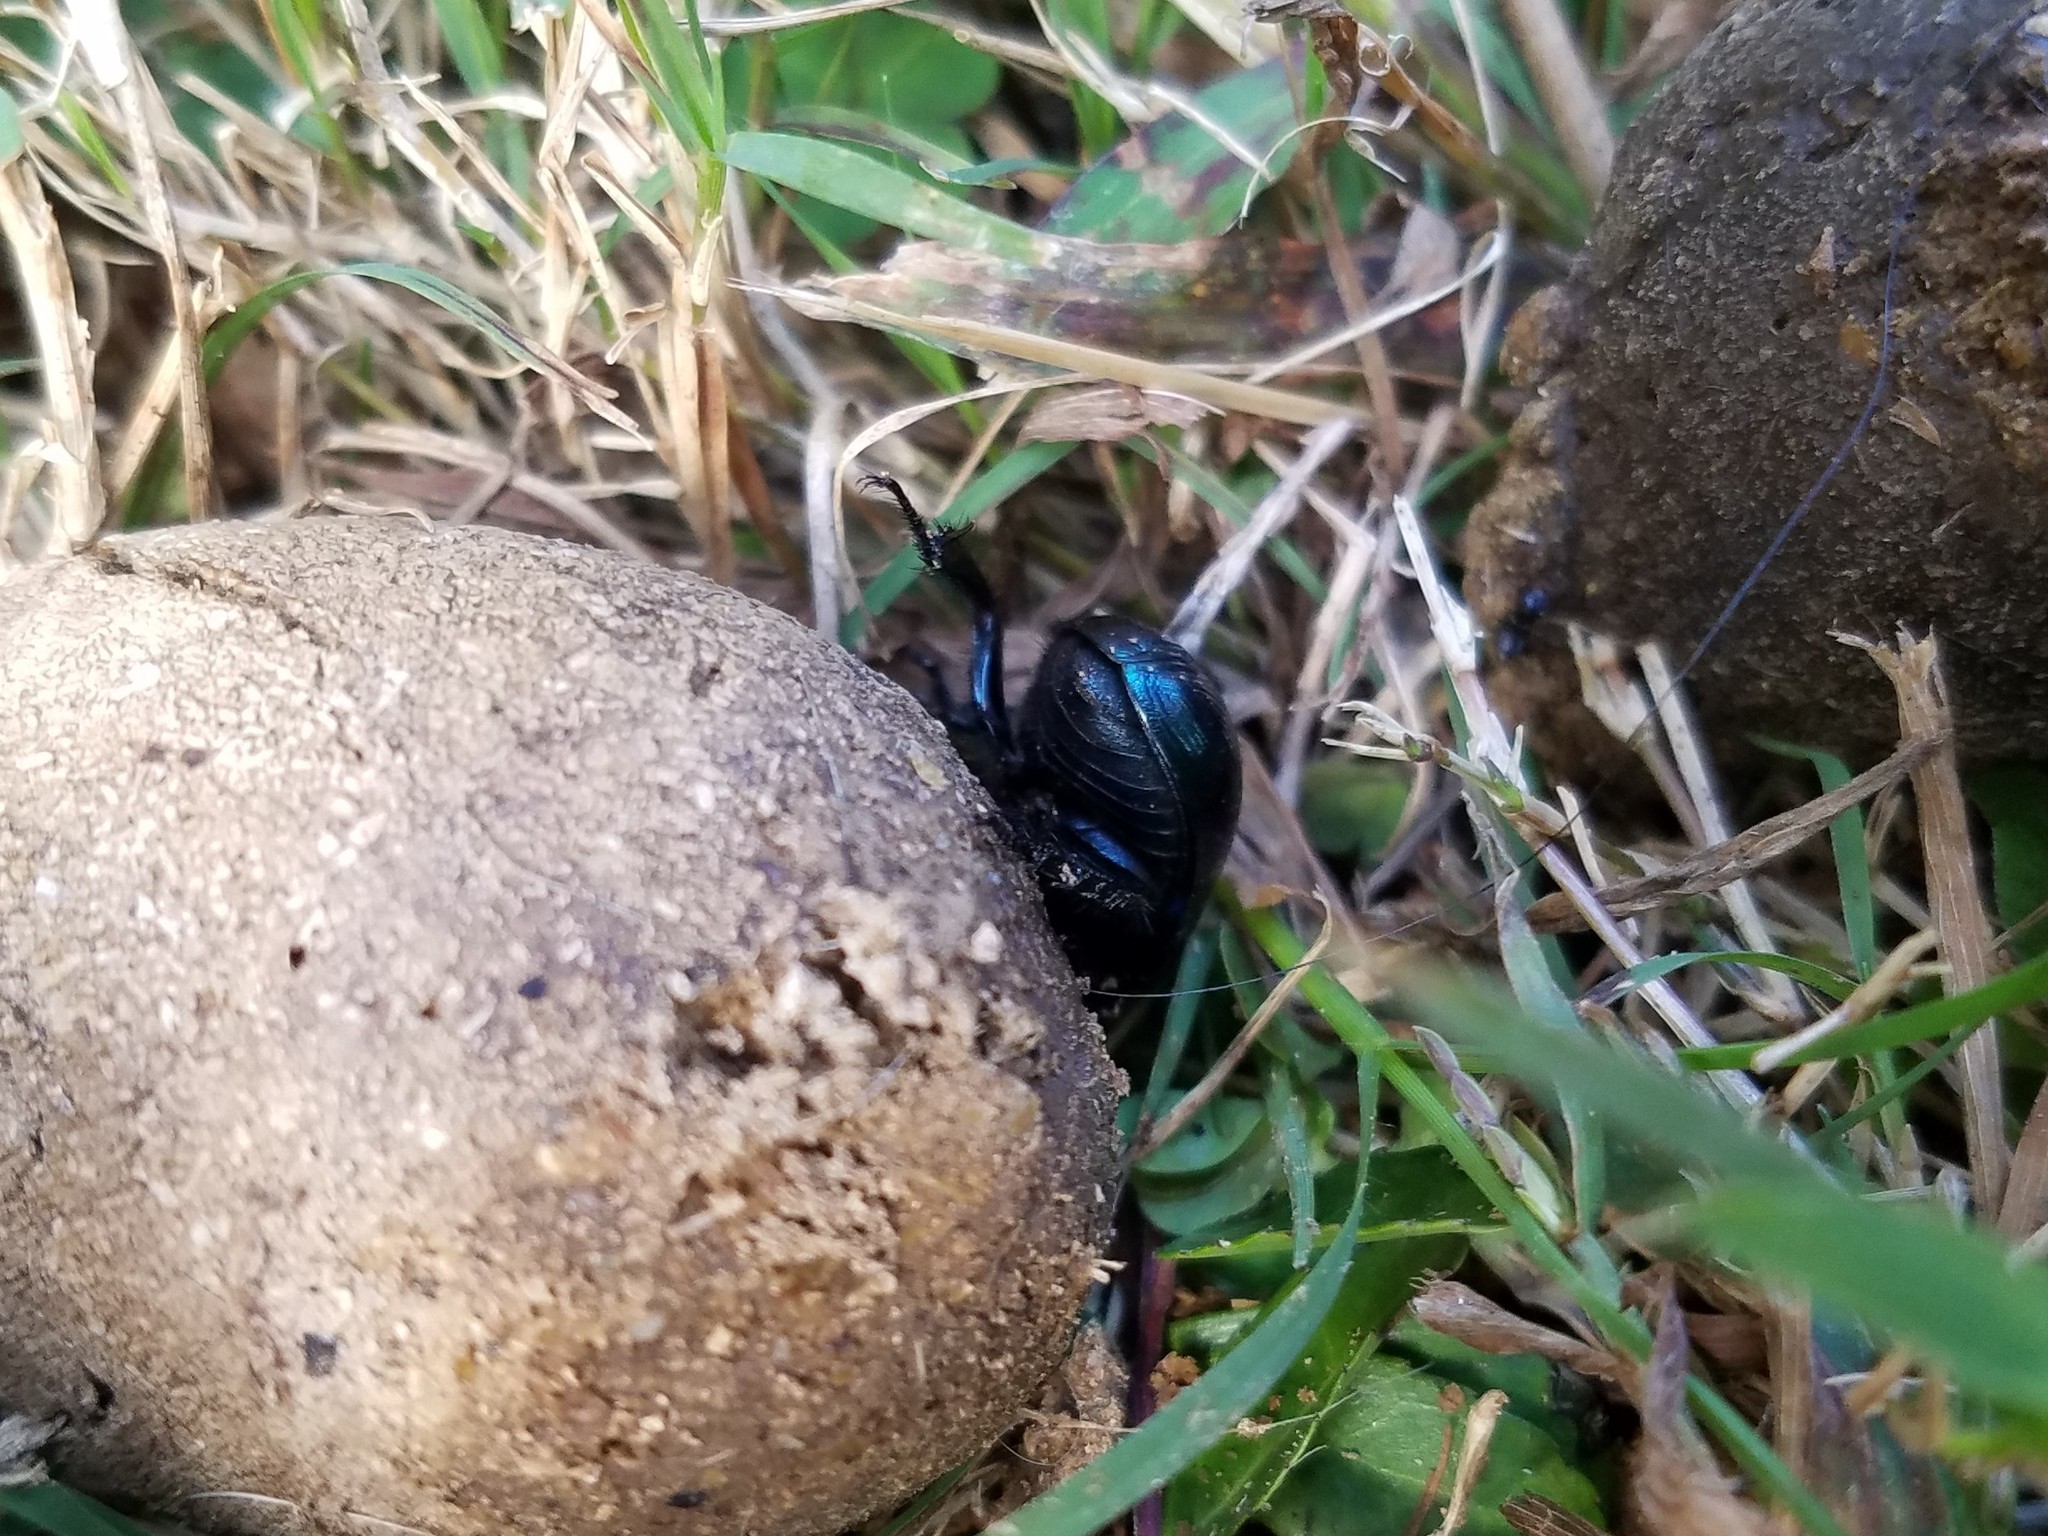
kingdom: Animalia
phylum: Arthropoda
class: Insecta
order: Coleoptera
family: Geotrupidae
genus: Anoplotrupes
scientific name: Anoplotrupes balyi
